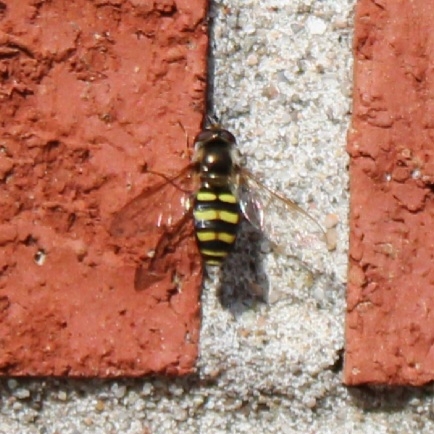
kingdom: Animalia
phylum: Arthropoda
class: Insecta
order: Diptera
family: Syrphidae
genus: Eupeodes
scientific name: Eupeodes
